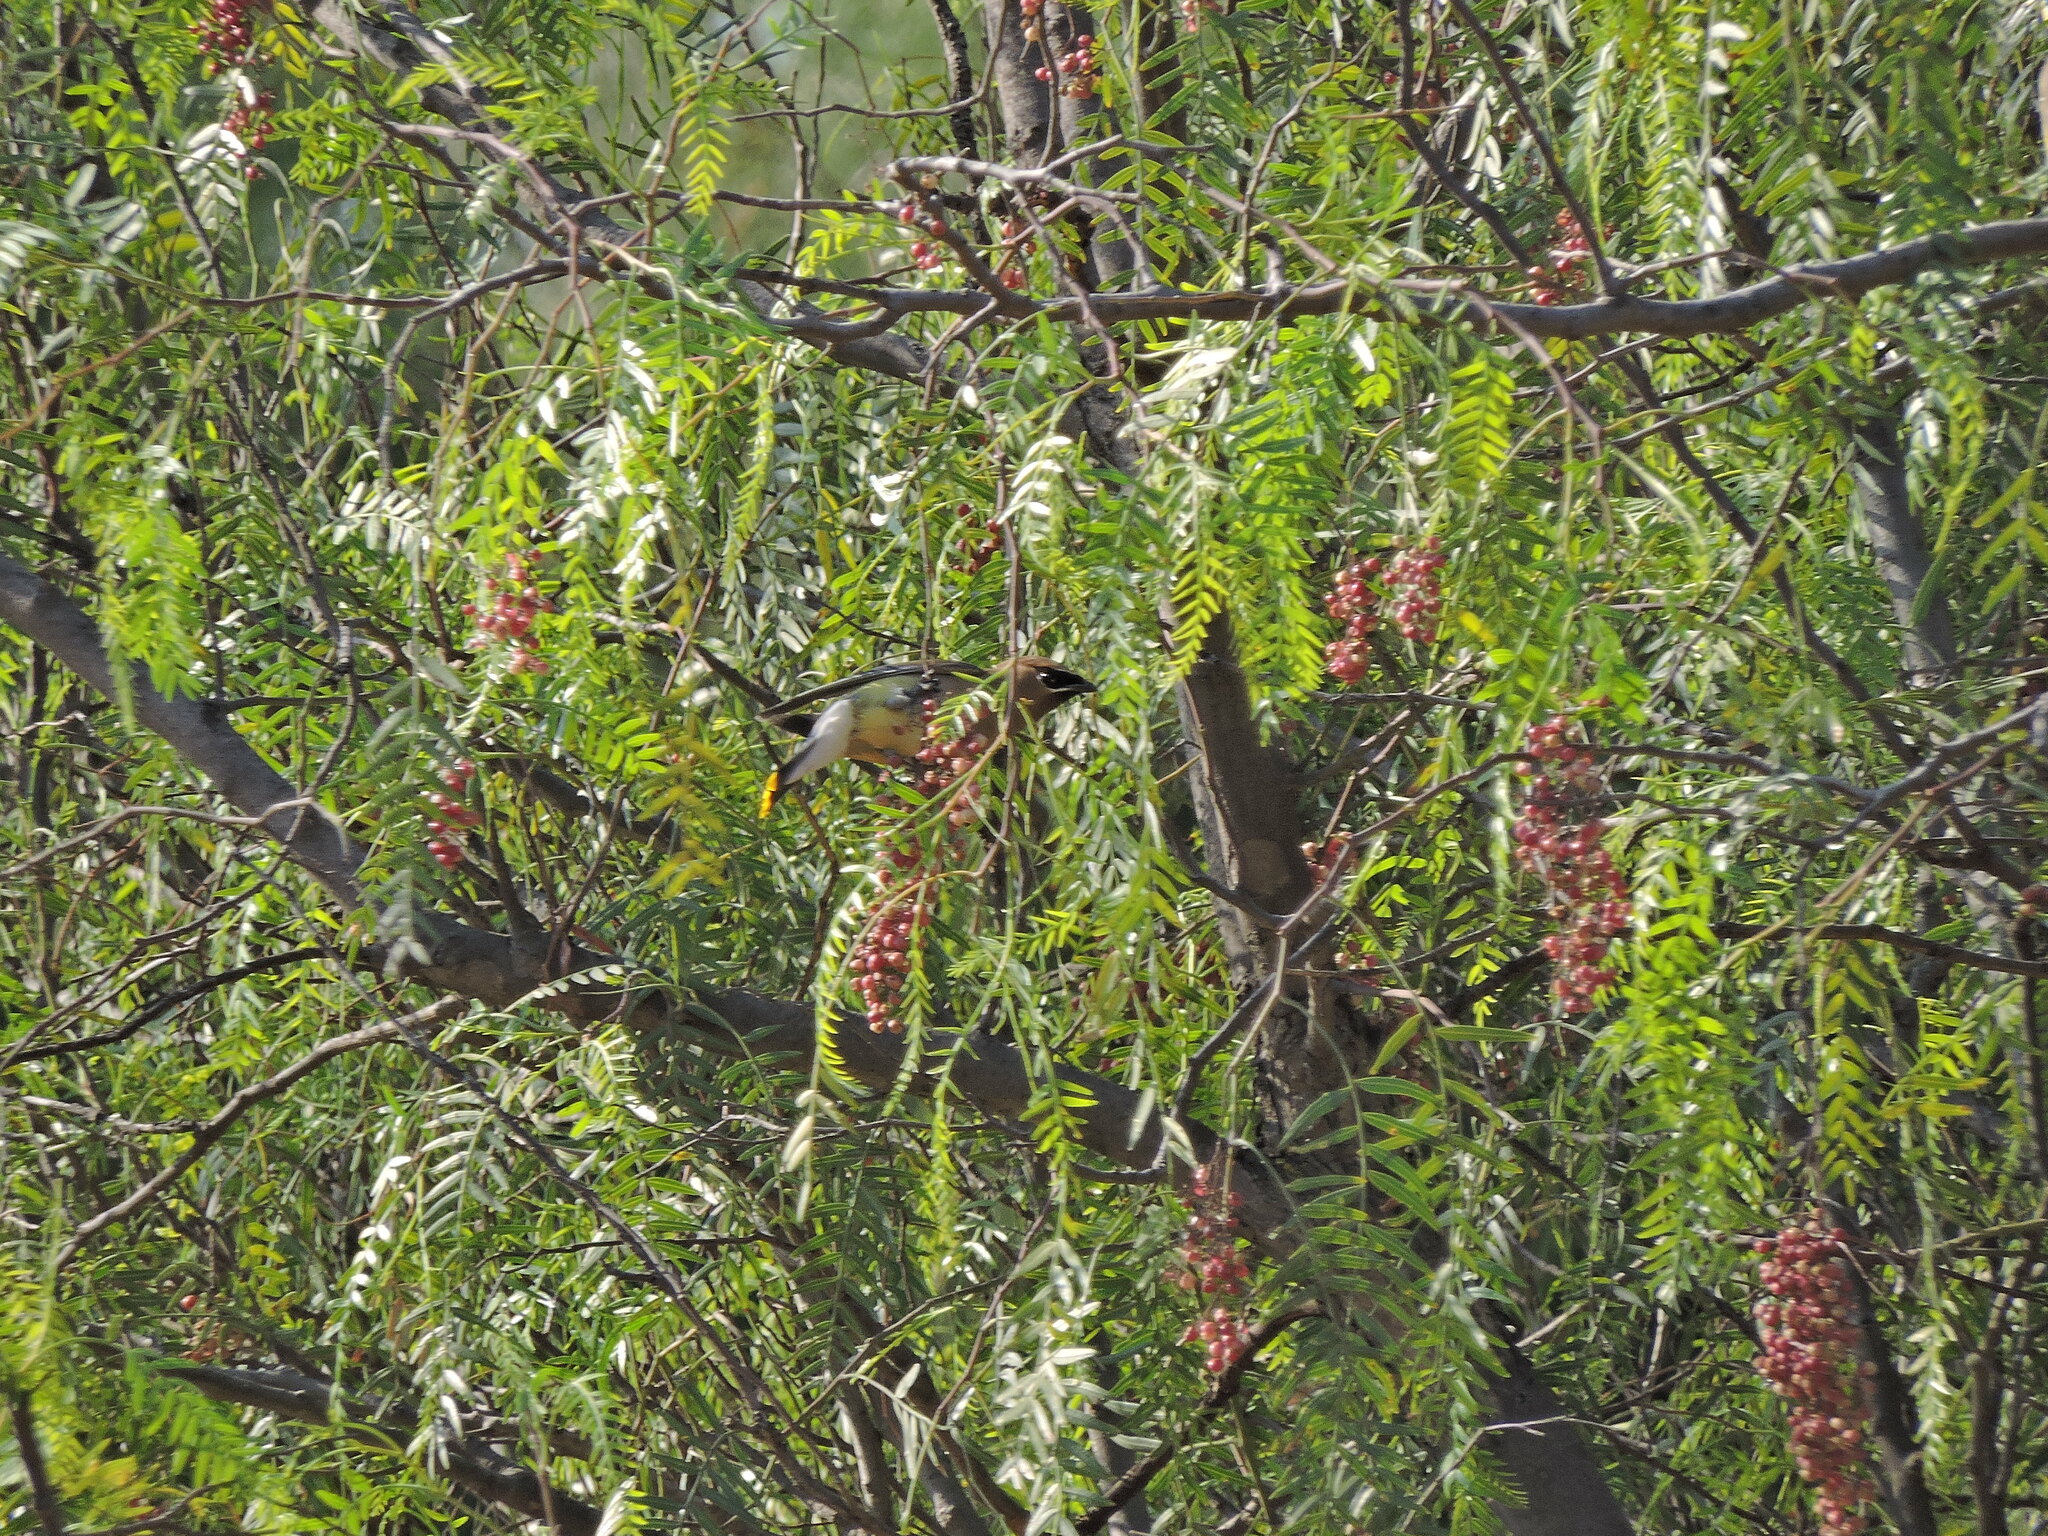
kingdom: Animalia
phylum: Chordata
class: Aves
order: Passeriformes
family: Bombycillidae
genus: Bombycilla
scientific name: Bombycilla cedrorum
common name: Cedar waxwing
